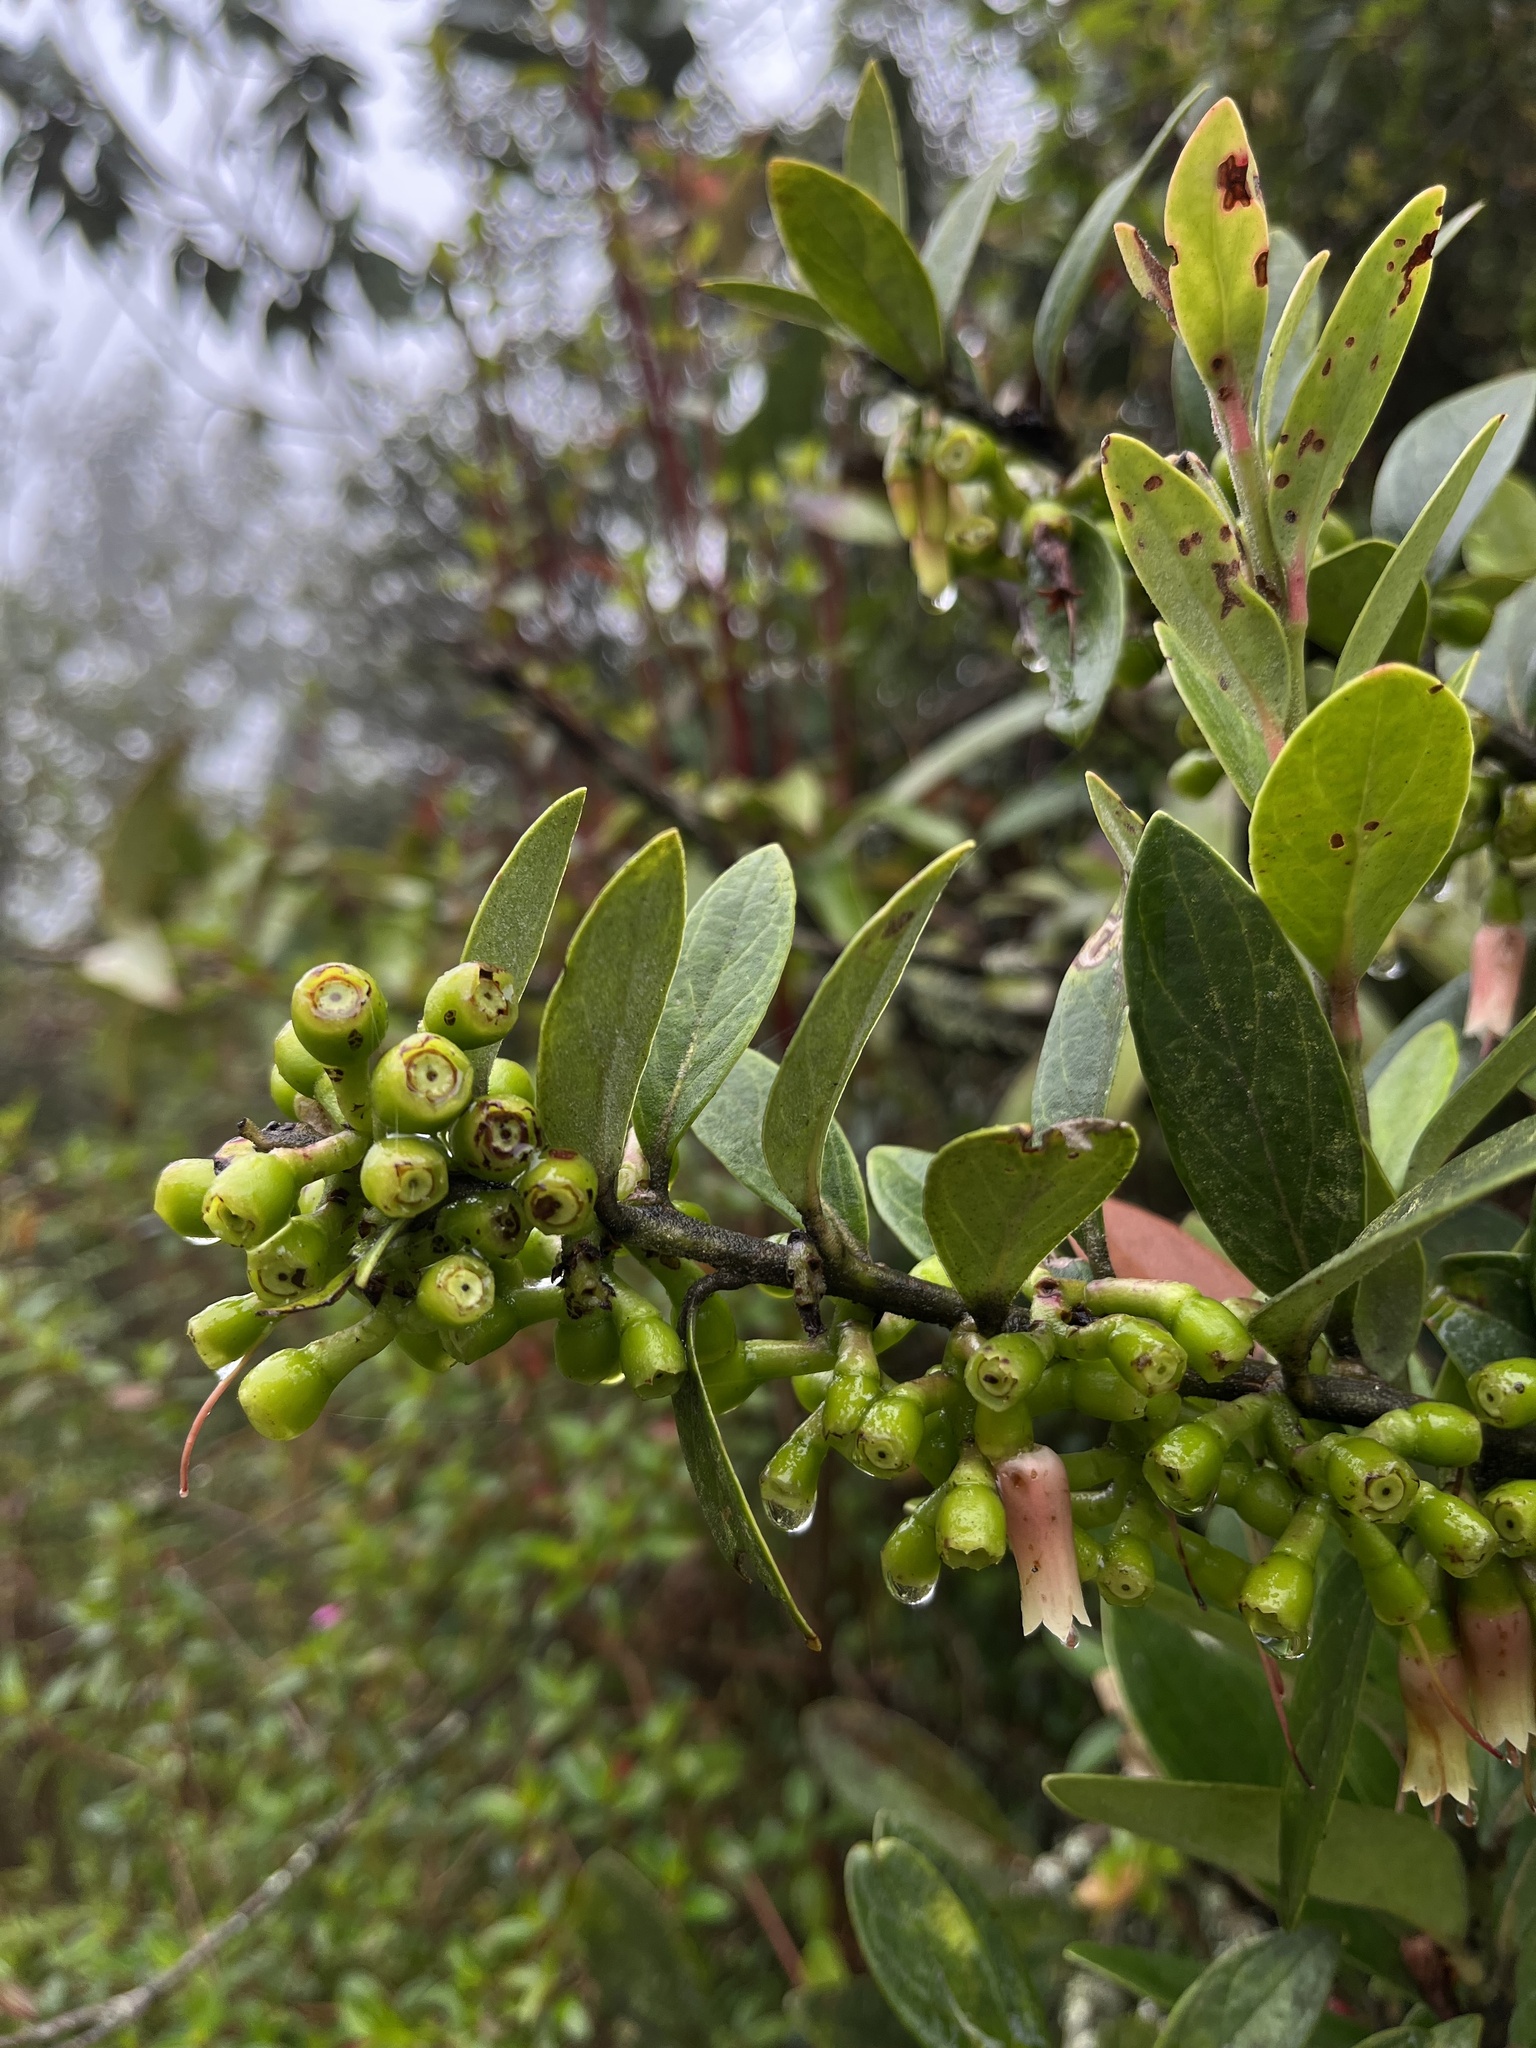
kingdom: Plantae
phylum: Tracheophyta
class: Magnoliopsida
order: Ericales
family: Ericaceae
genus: Macleania
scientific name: Macleania rupestris
